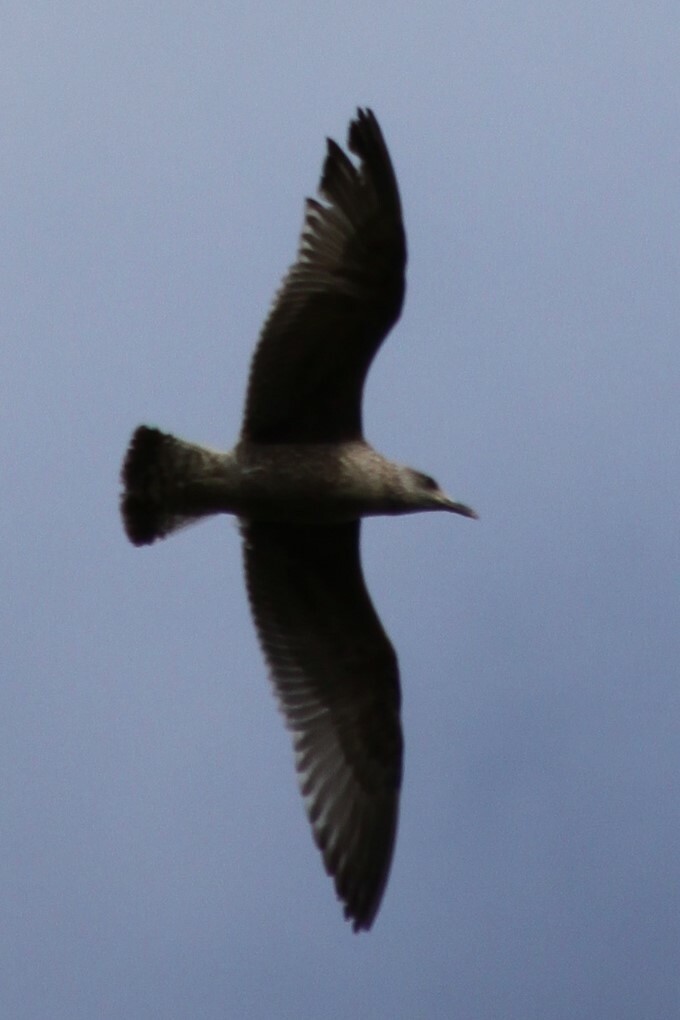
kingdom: Animalia
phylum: Chordata
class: Aves
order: Charadriiformes
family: Laridae
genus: Larus
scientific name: Larus argentatus
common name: Herring gull
